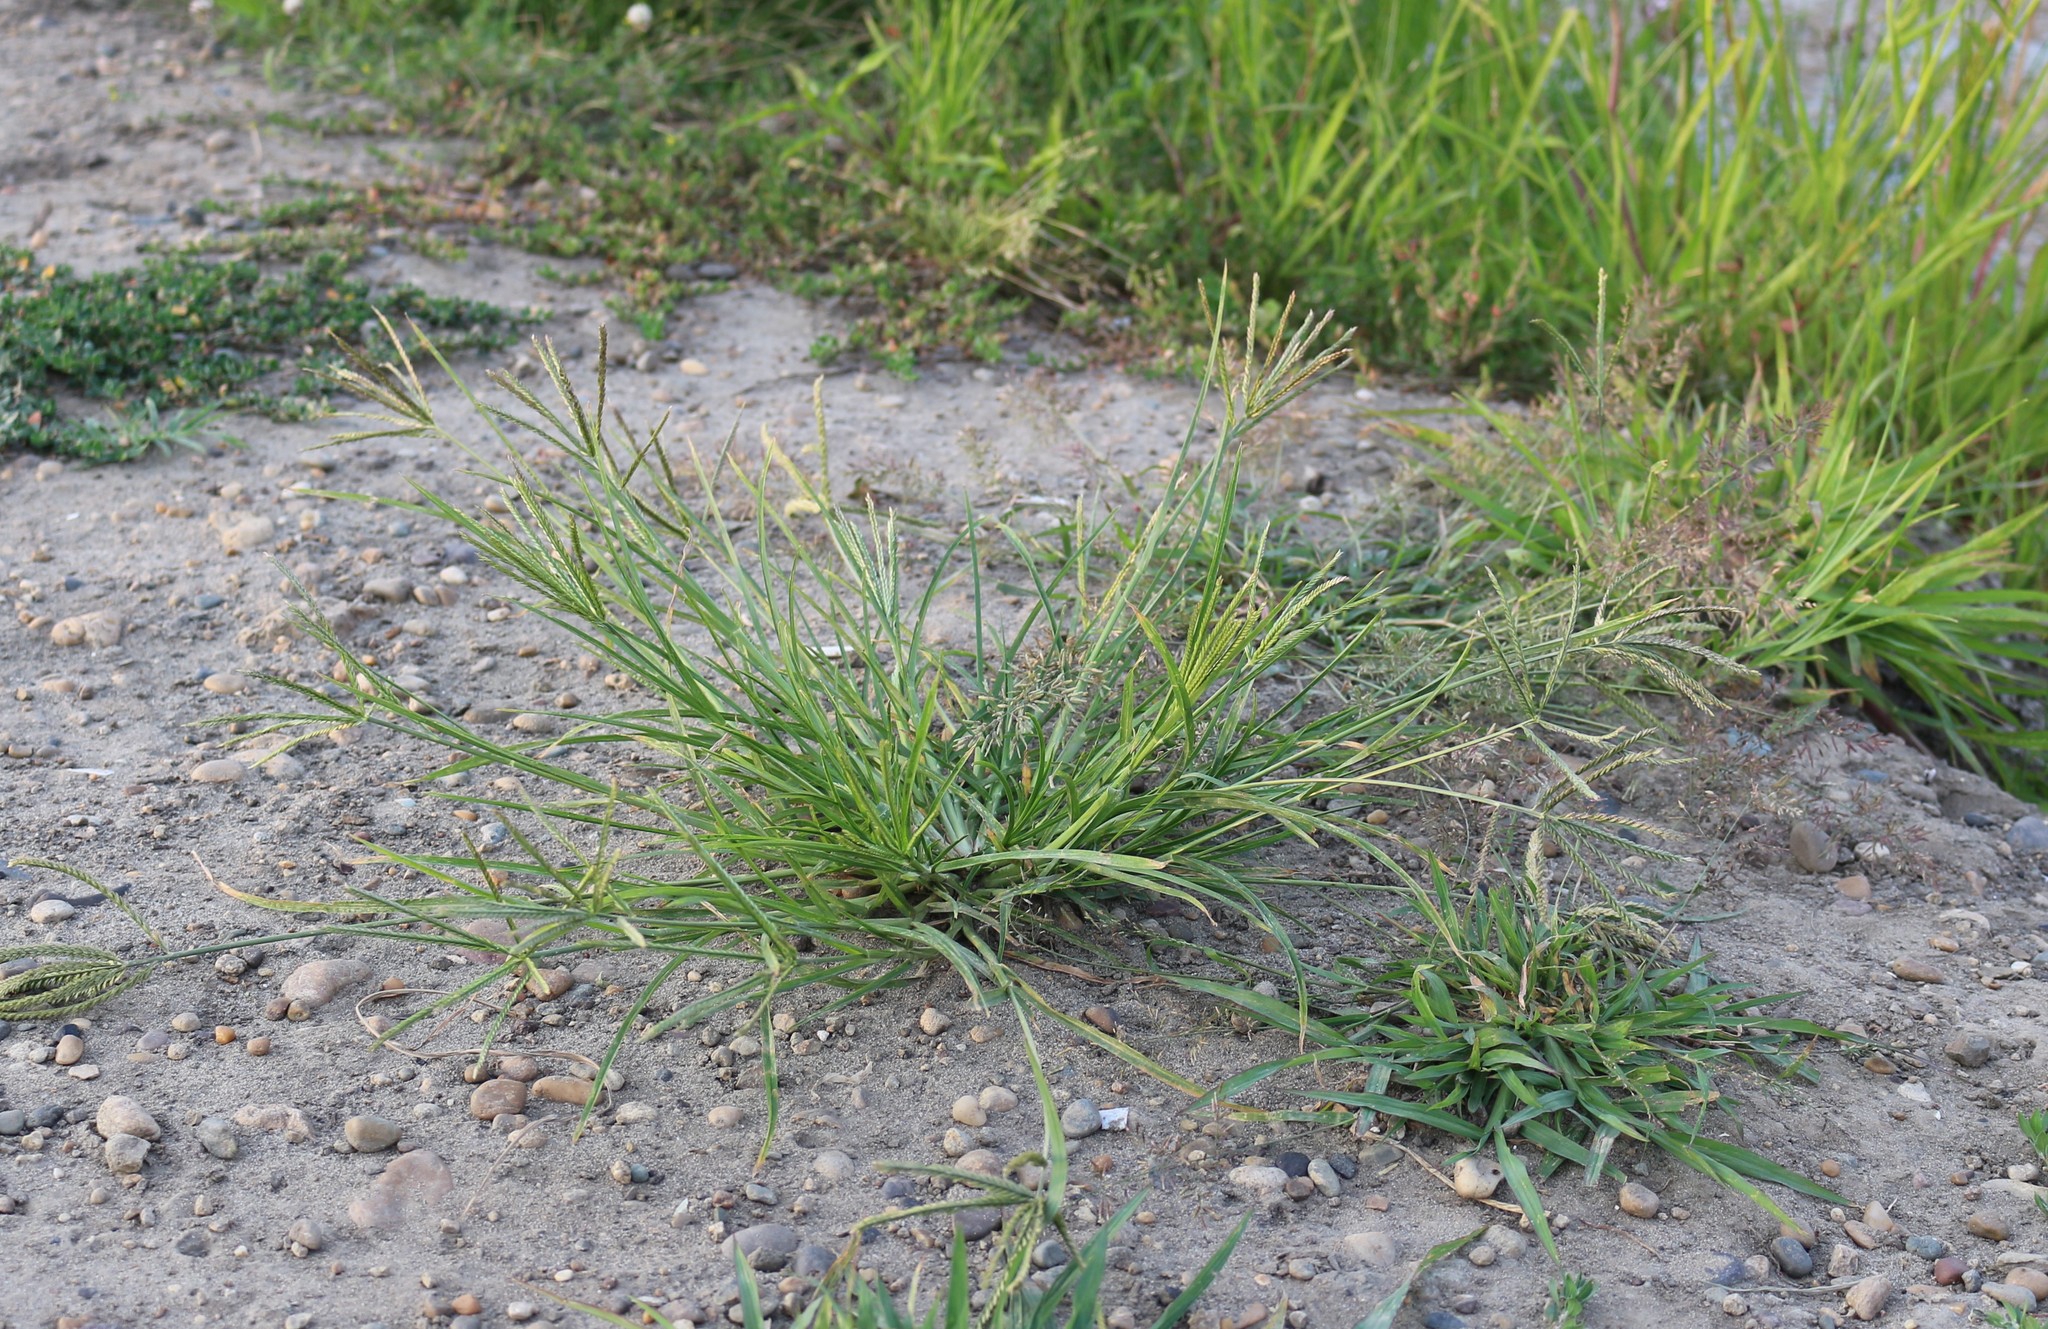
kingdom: Plantae
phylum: Tracheophyta
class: Liliopsida
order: Poales
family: Poaceae
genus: Eleusine
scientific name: Eleusine indica
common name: Yard-grass
